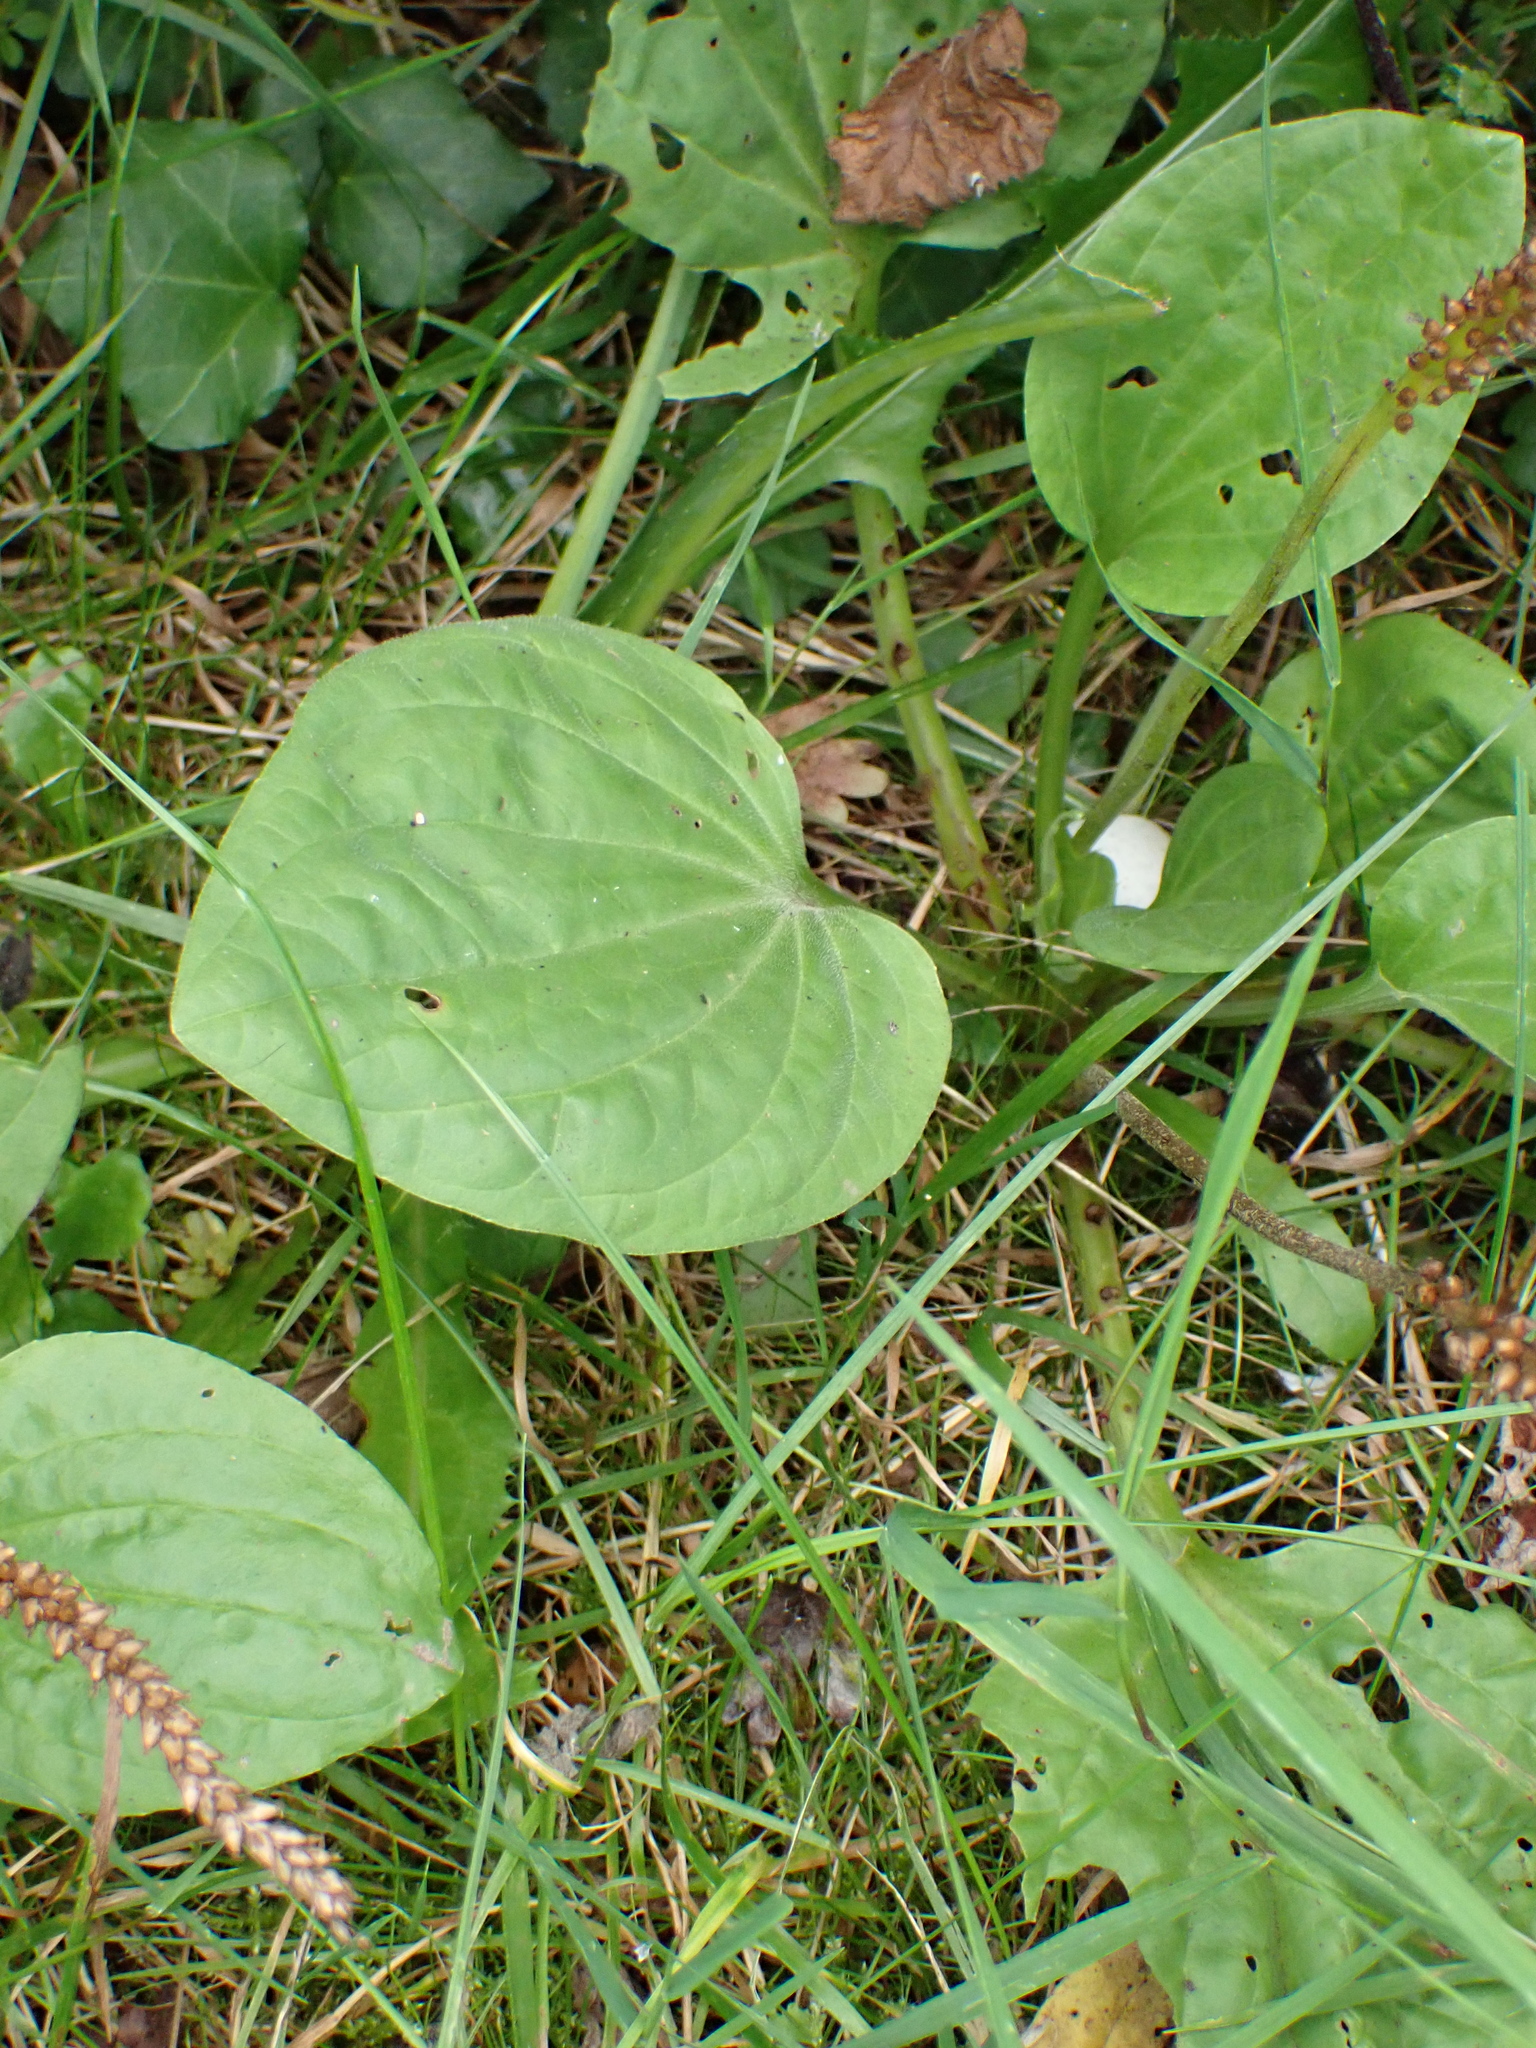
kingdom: Plantae
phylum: Tracheophyta
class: Magnoliopsida
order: Lamiales
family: Plantaginaceae
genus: Plantago
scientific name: Plantago major
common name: Common plantain
